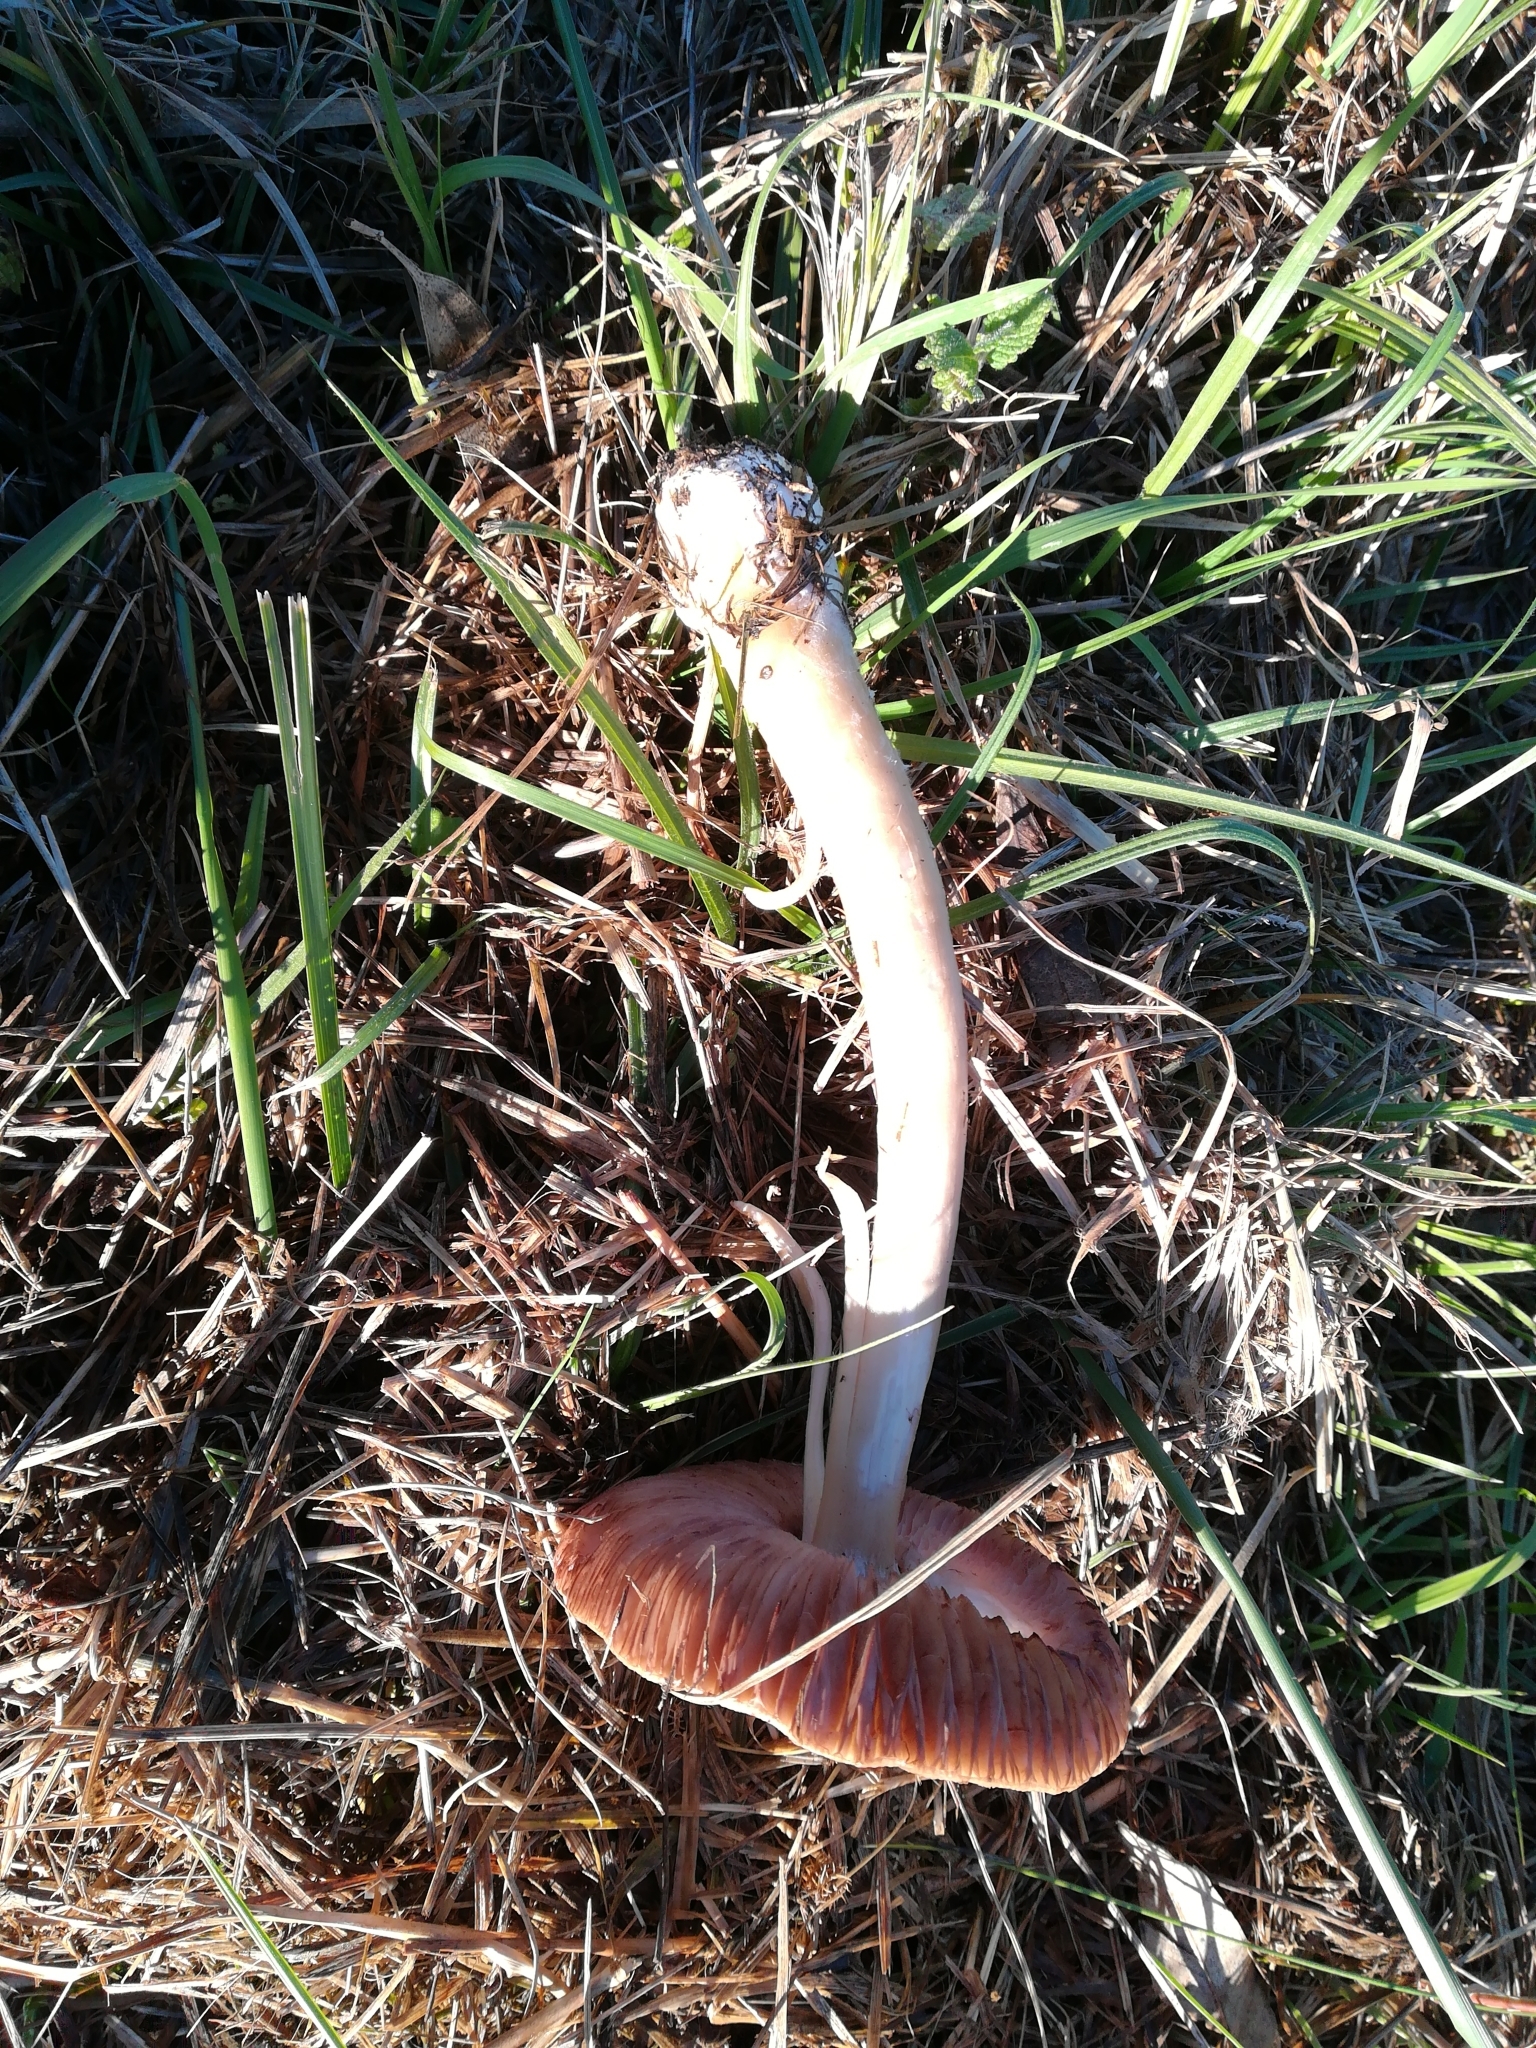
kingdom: Fungi
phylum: Basidiomycota
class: Agaricomycetes
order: Agaricales
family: Pluteaceae
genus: Volvopluteus
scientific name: Volvopluteus gloiocephalus
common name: Stubble rosegill
